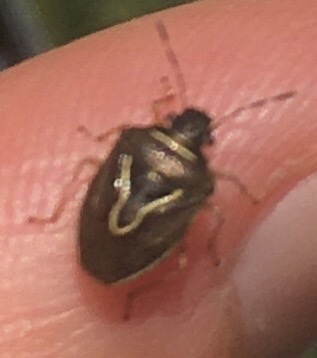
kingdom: Animalia
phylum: Arthropoda
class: Insecta
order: Hemiptera
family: Pentatomidae
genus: Mormidea
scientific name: Mormidea lugens
